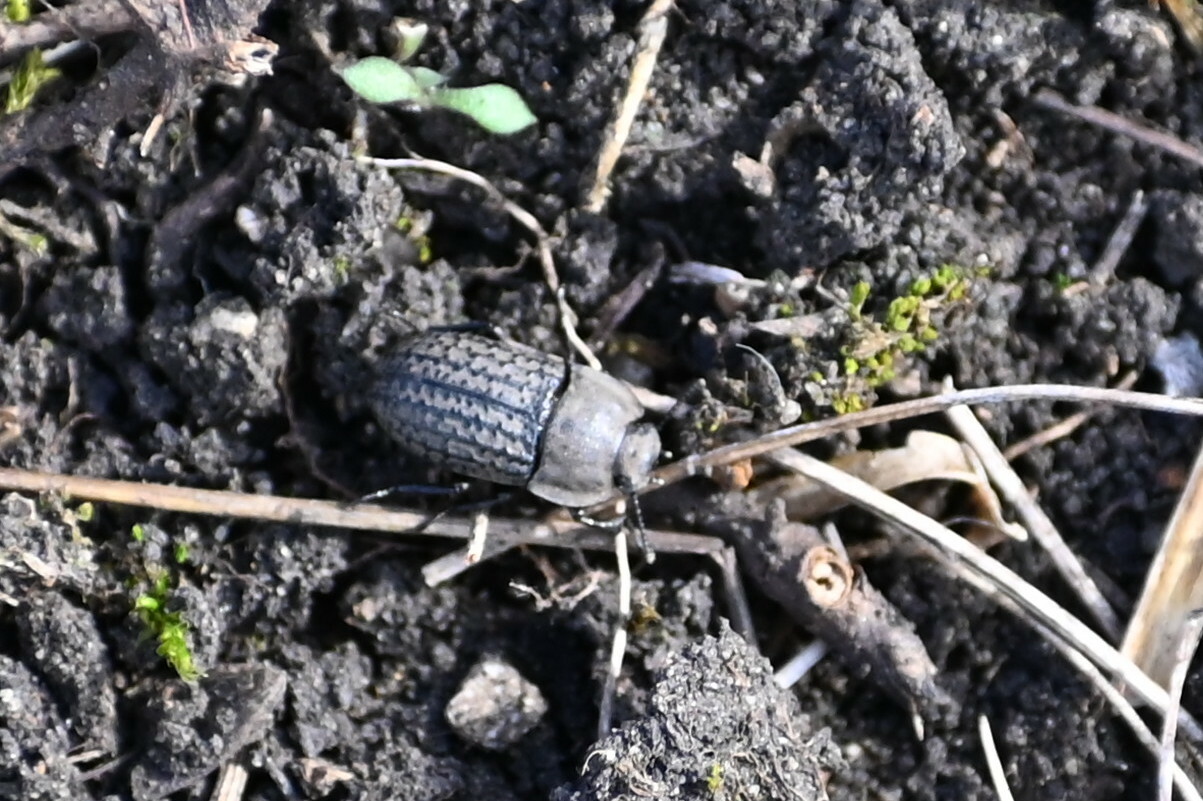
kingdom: Animalia
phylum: Arthropoda
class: Insecta
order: Coleoptera
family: Tenebrionidae
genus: Opatrum
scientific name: Opatrum sabulosum
